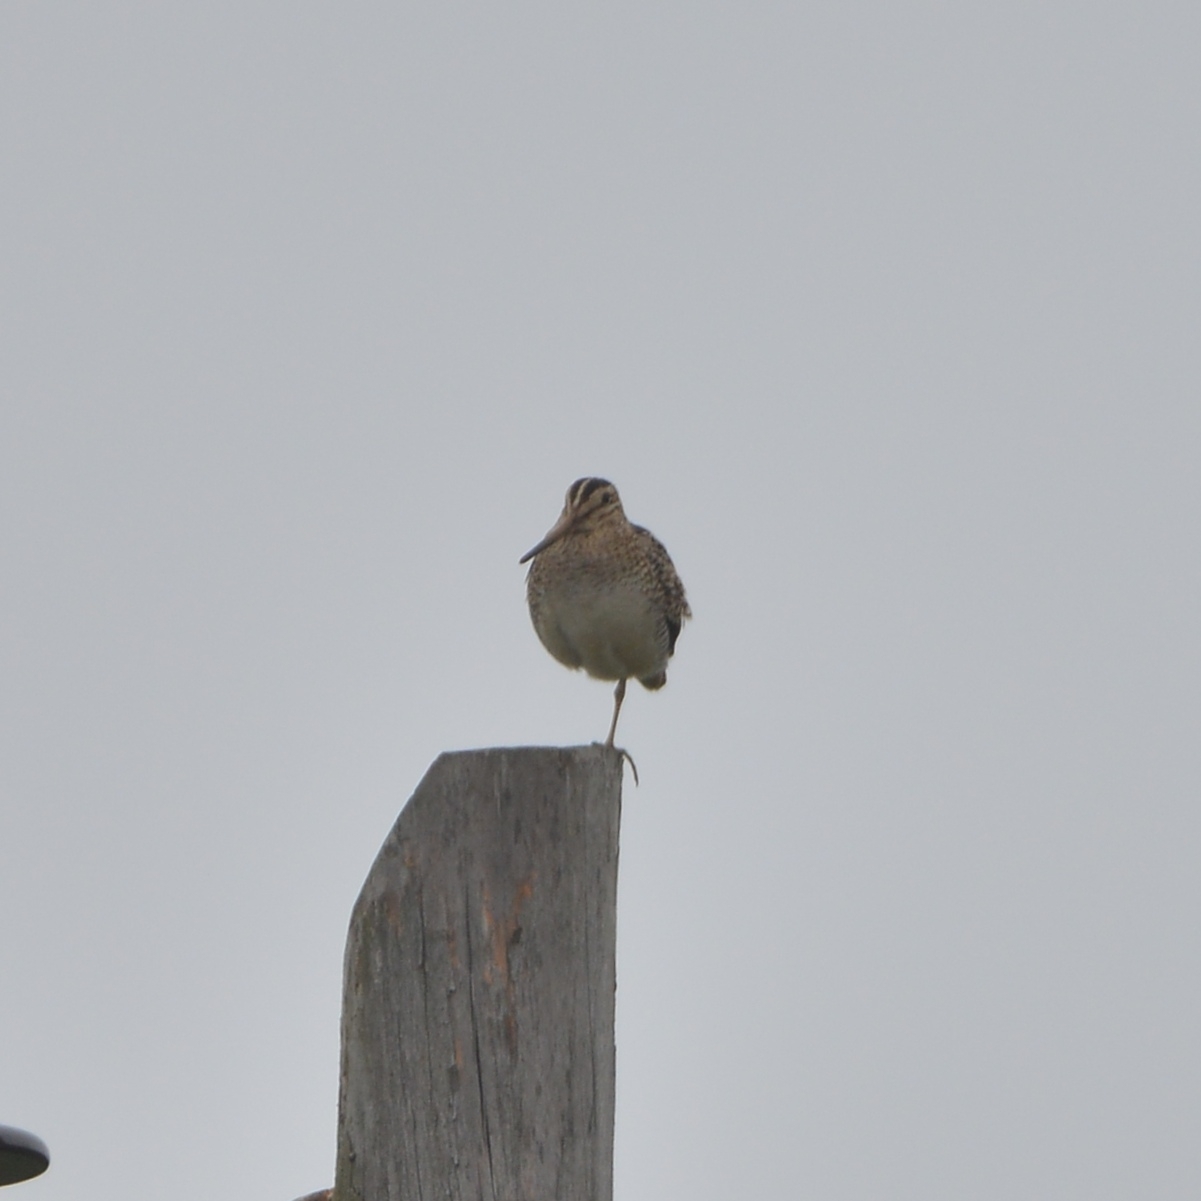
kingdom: Animalia
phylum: Chordata
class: Aves
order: Charadriiformes
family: Scolopacidae
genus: Gallinago
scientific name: Gallinago hardwickii
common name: Latham's snipe
